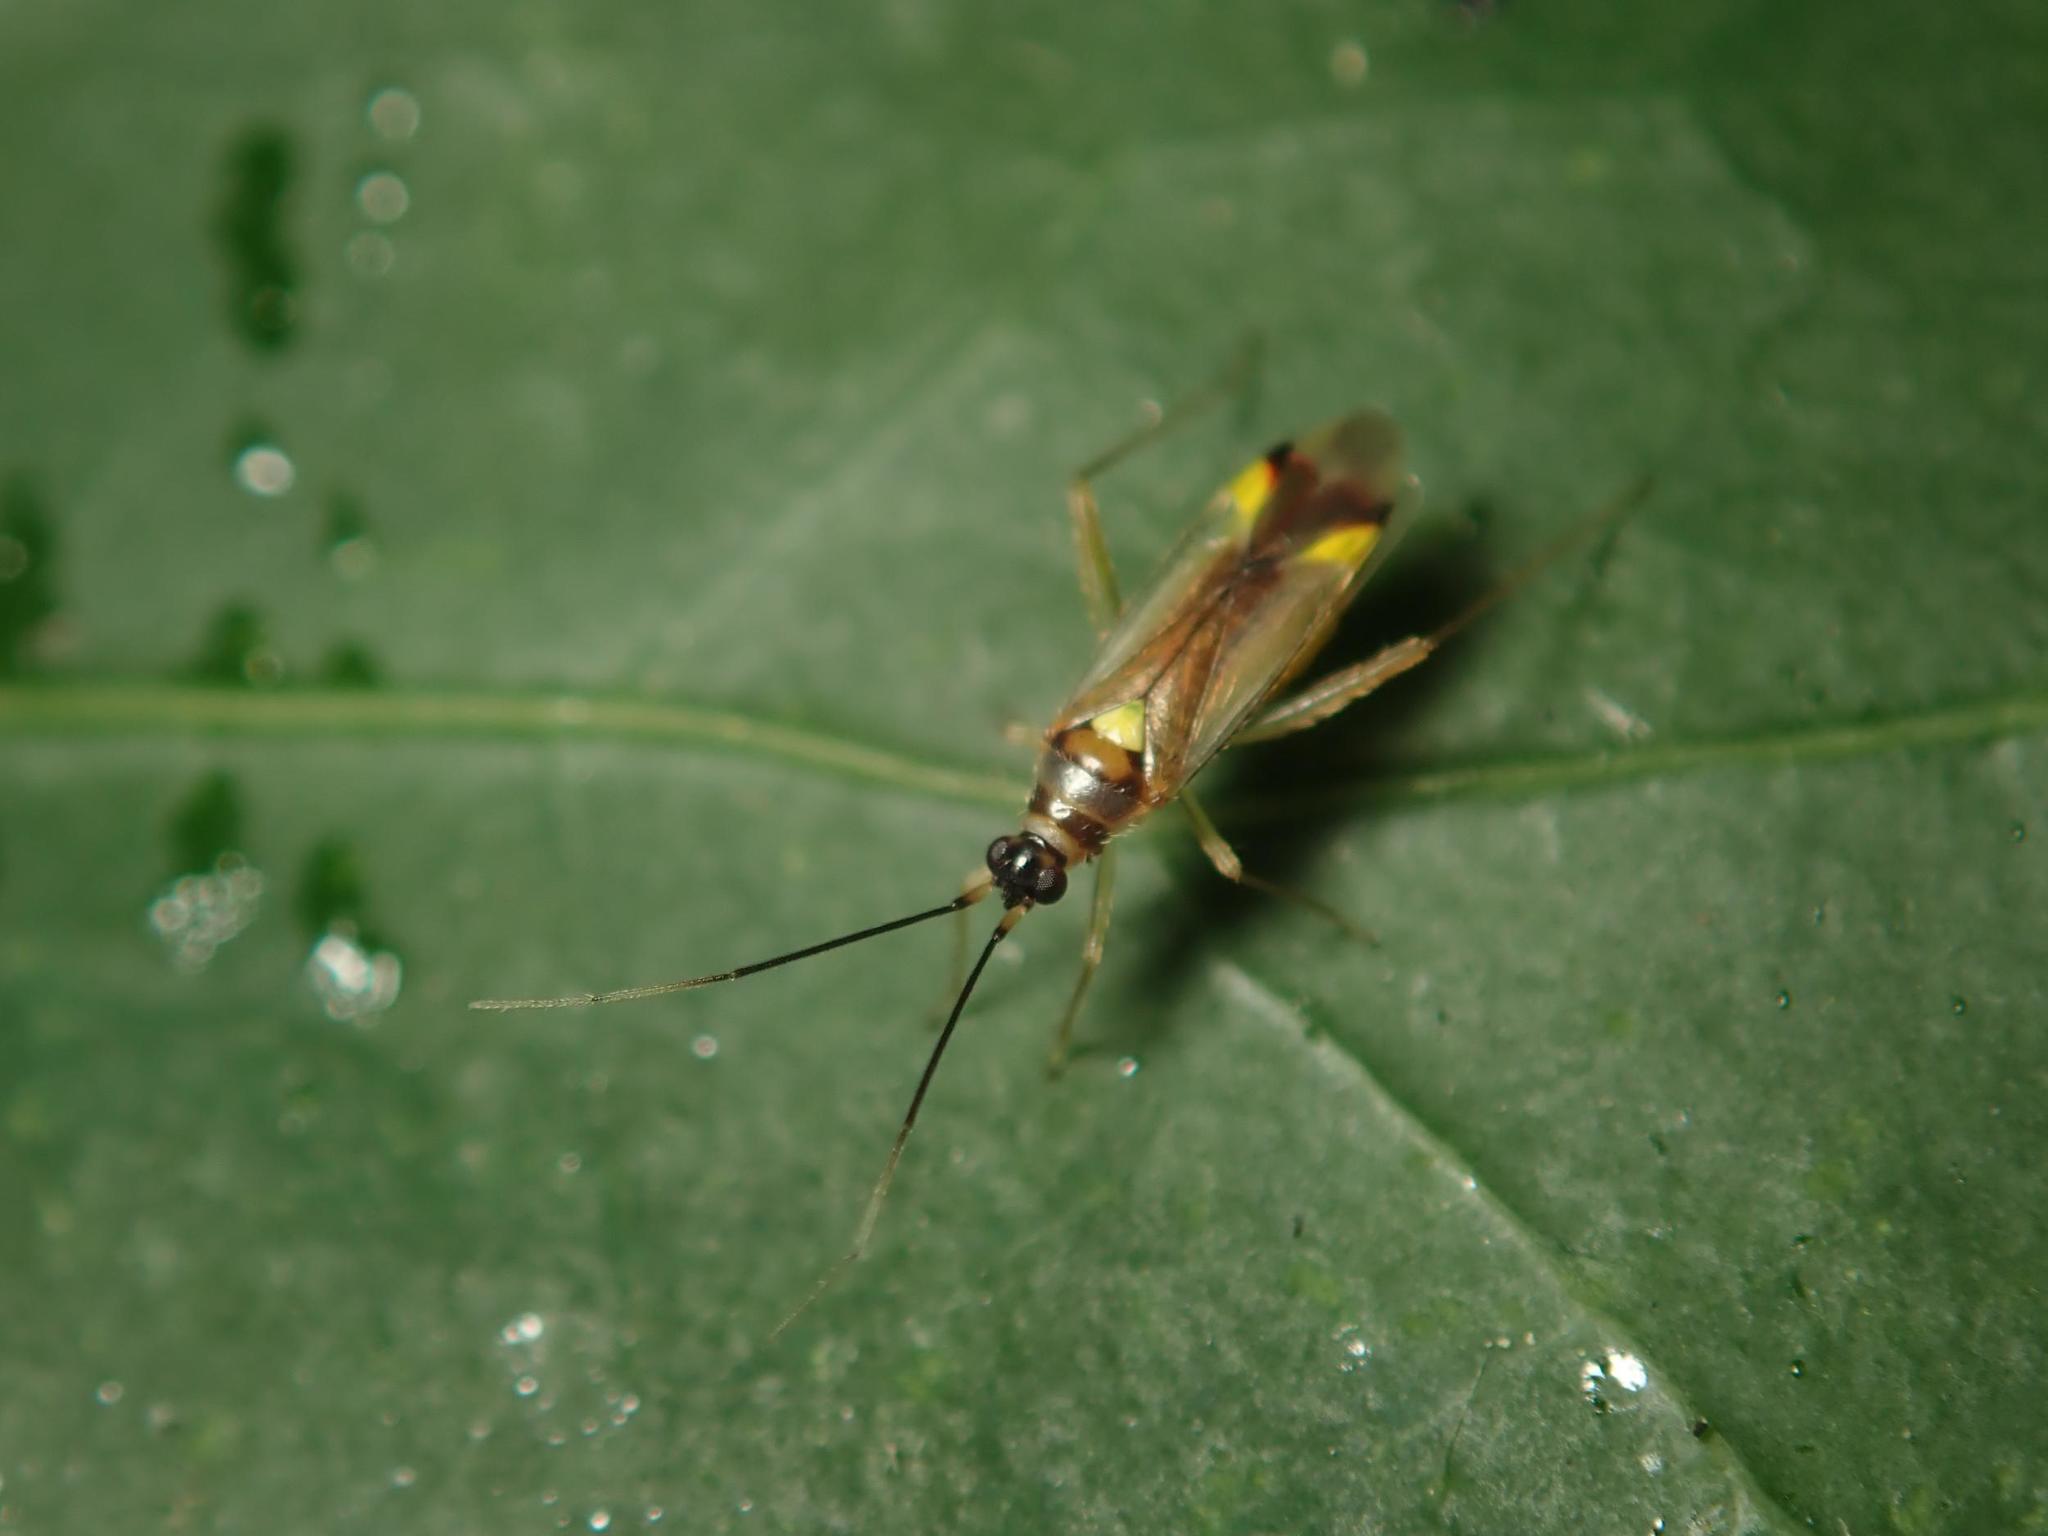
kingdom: Animalia
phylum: Arthropoda
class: Insecta
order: Hemiptera
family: Miridae
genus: Campyloneura
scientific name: Campyloneura virgula
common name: Predatory bug
